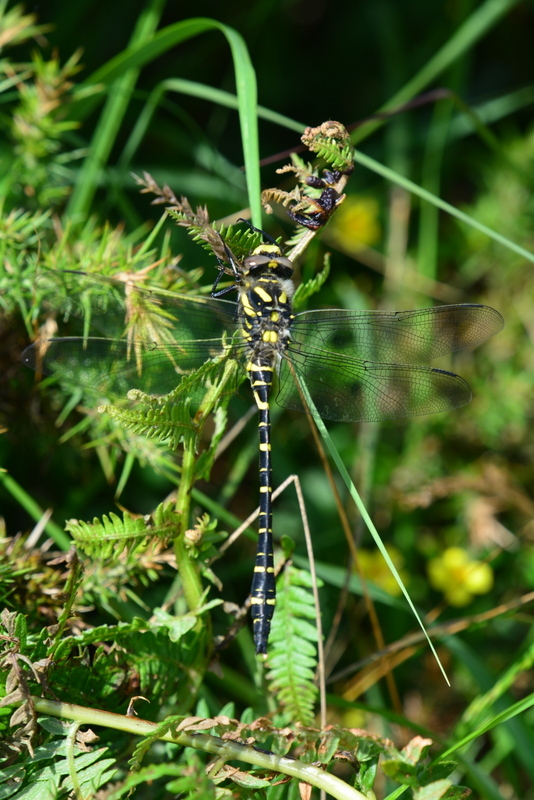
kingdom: Animalia
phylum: Arthropoda
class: Insecta
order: Odonata
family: Cordulegastridae
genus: Cordulegaster
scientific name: Cordulegaster boltonii
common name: Golden-ringed dragonfly
